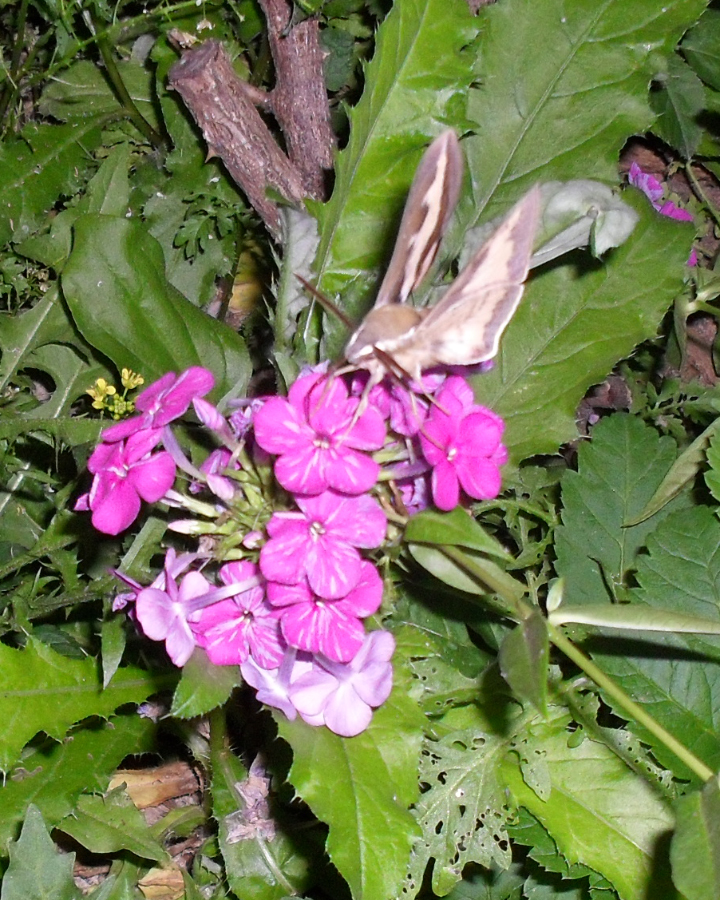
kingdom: Animalia
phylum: Arthropoda
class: Insecta
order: Lepidoptera
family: Sphingidae
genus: Hyles
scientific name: Hyles gallii
